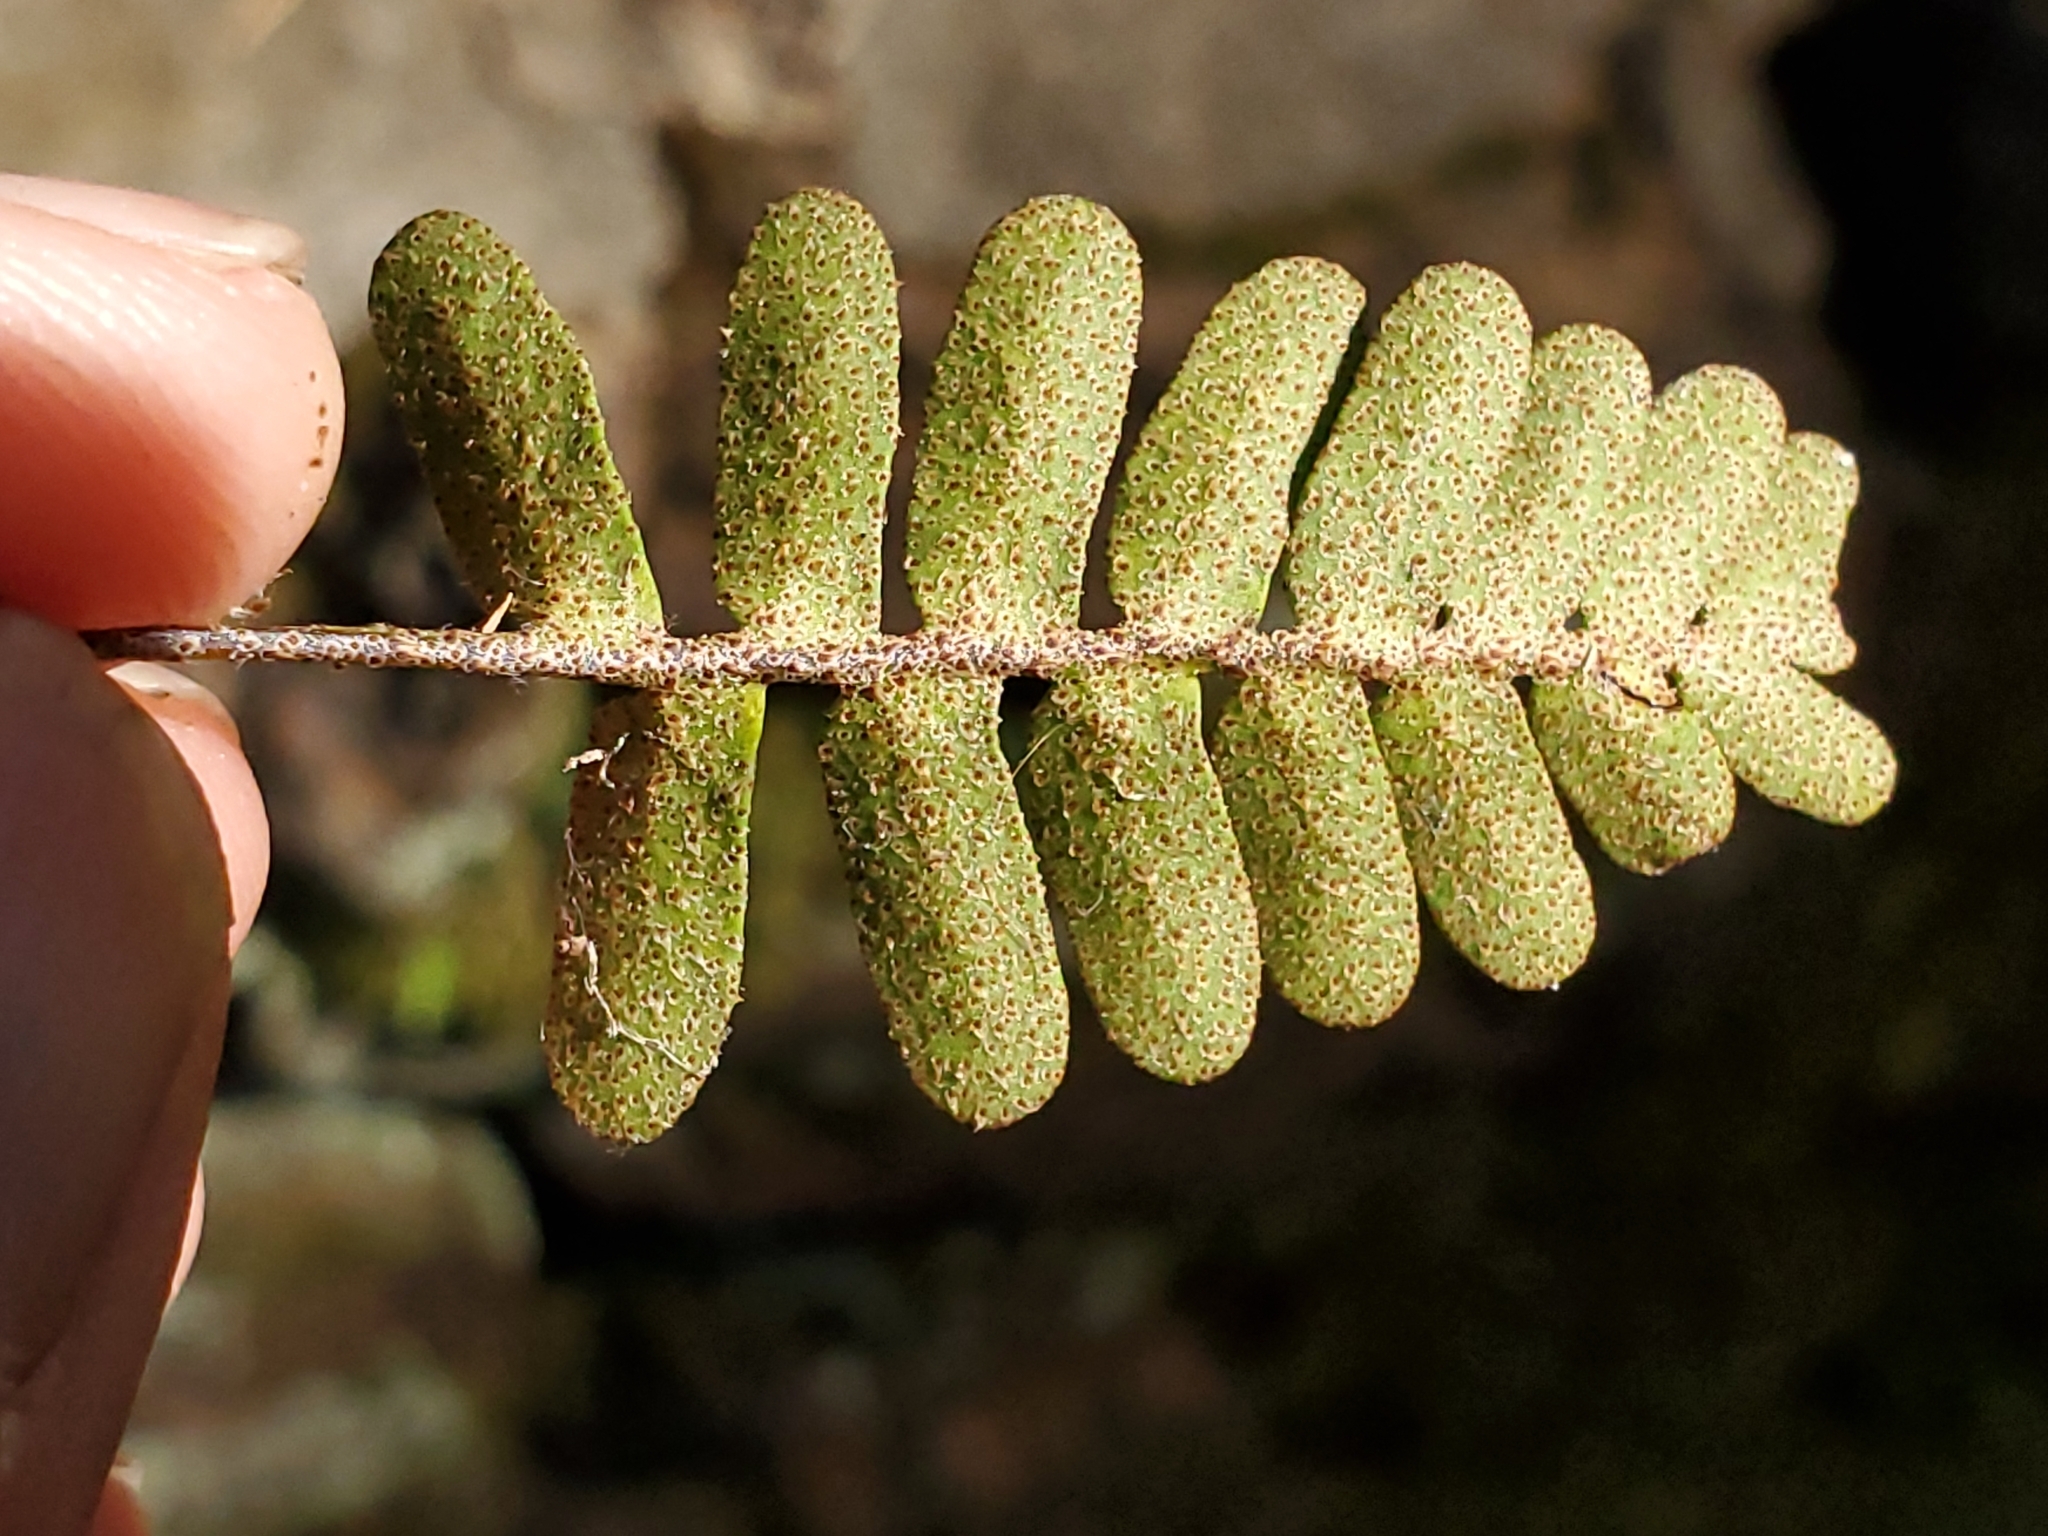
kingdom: Plantae
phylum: Tracheophyta
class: Polypodiopsida
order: Polypodiales
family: Polypodiaceae
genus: Pleopeltis
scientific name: Pleopeltis michauxiana
